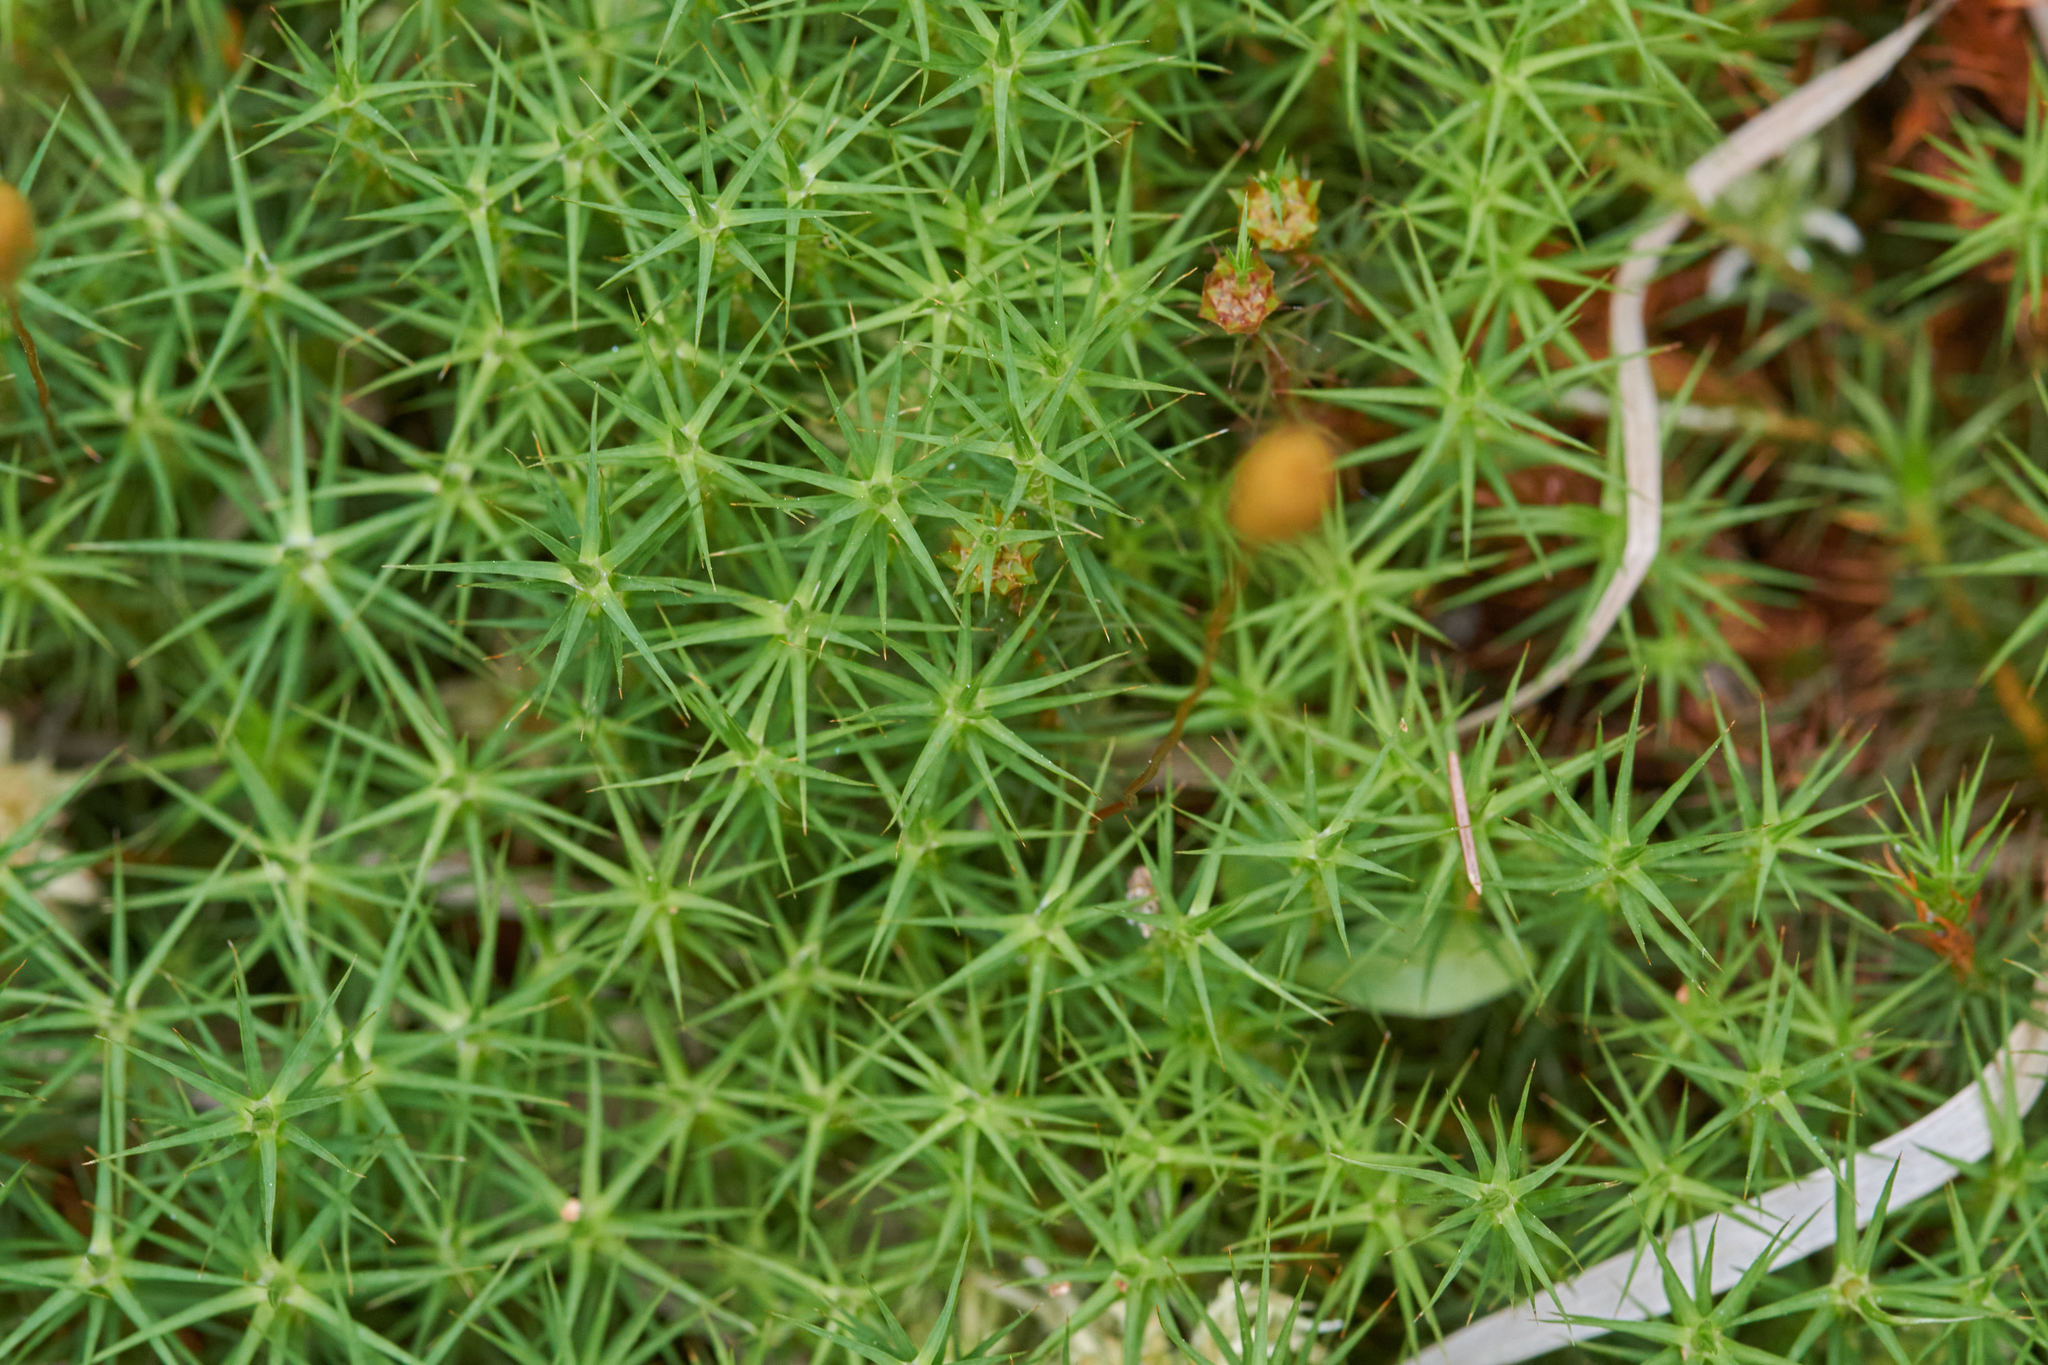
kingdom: Plantae
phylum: Bryophyta
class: Polytrichopsida
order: Polytrichales
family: Polytrichaceae
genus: Polytrichum
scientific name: Polytrichum commune
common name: Common haircap
